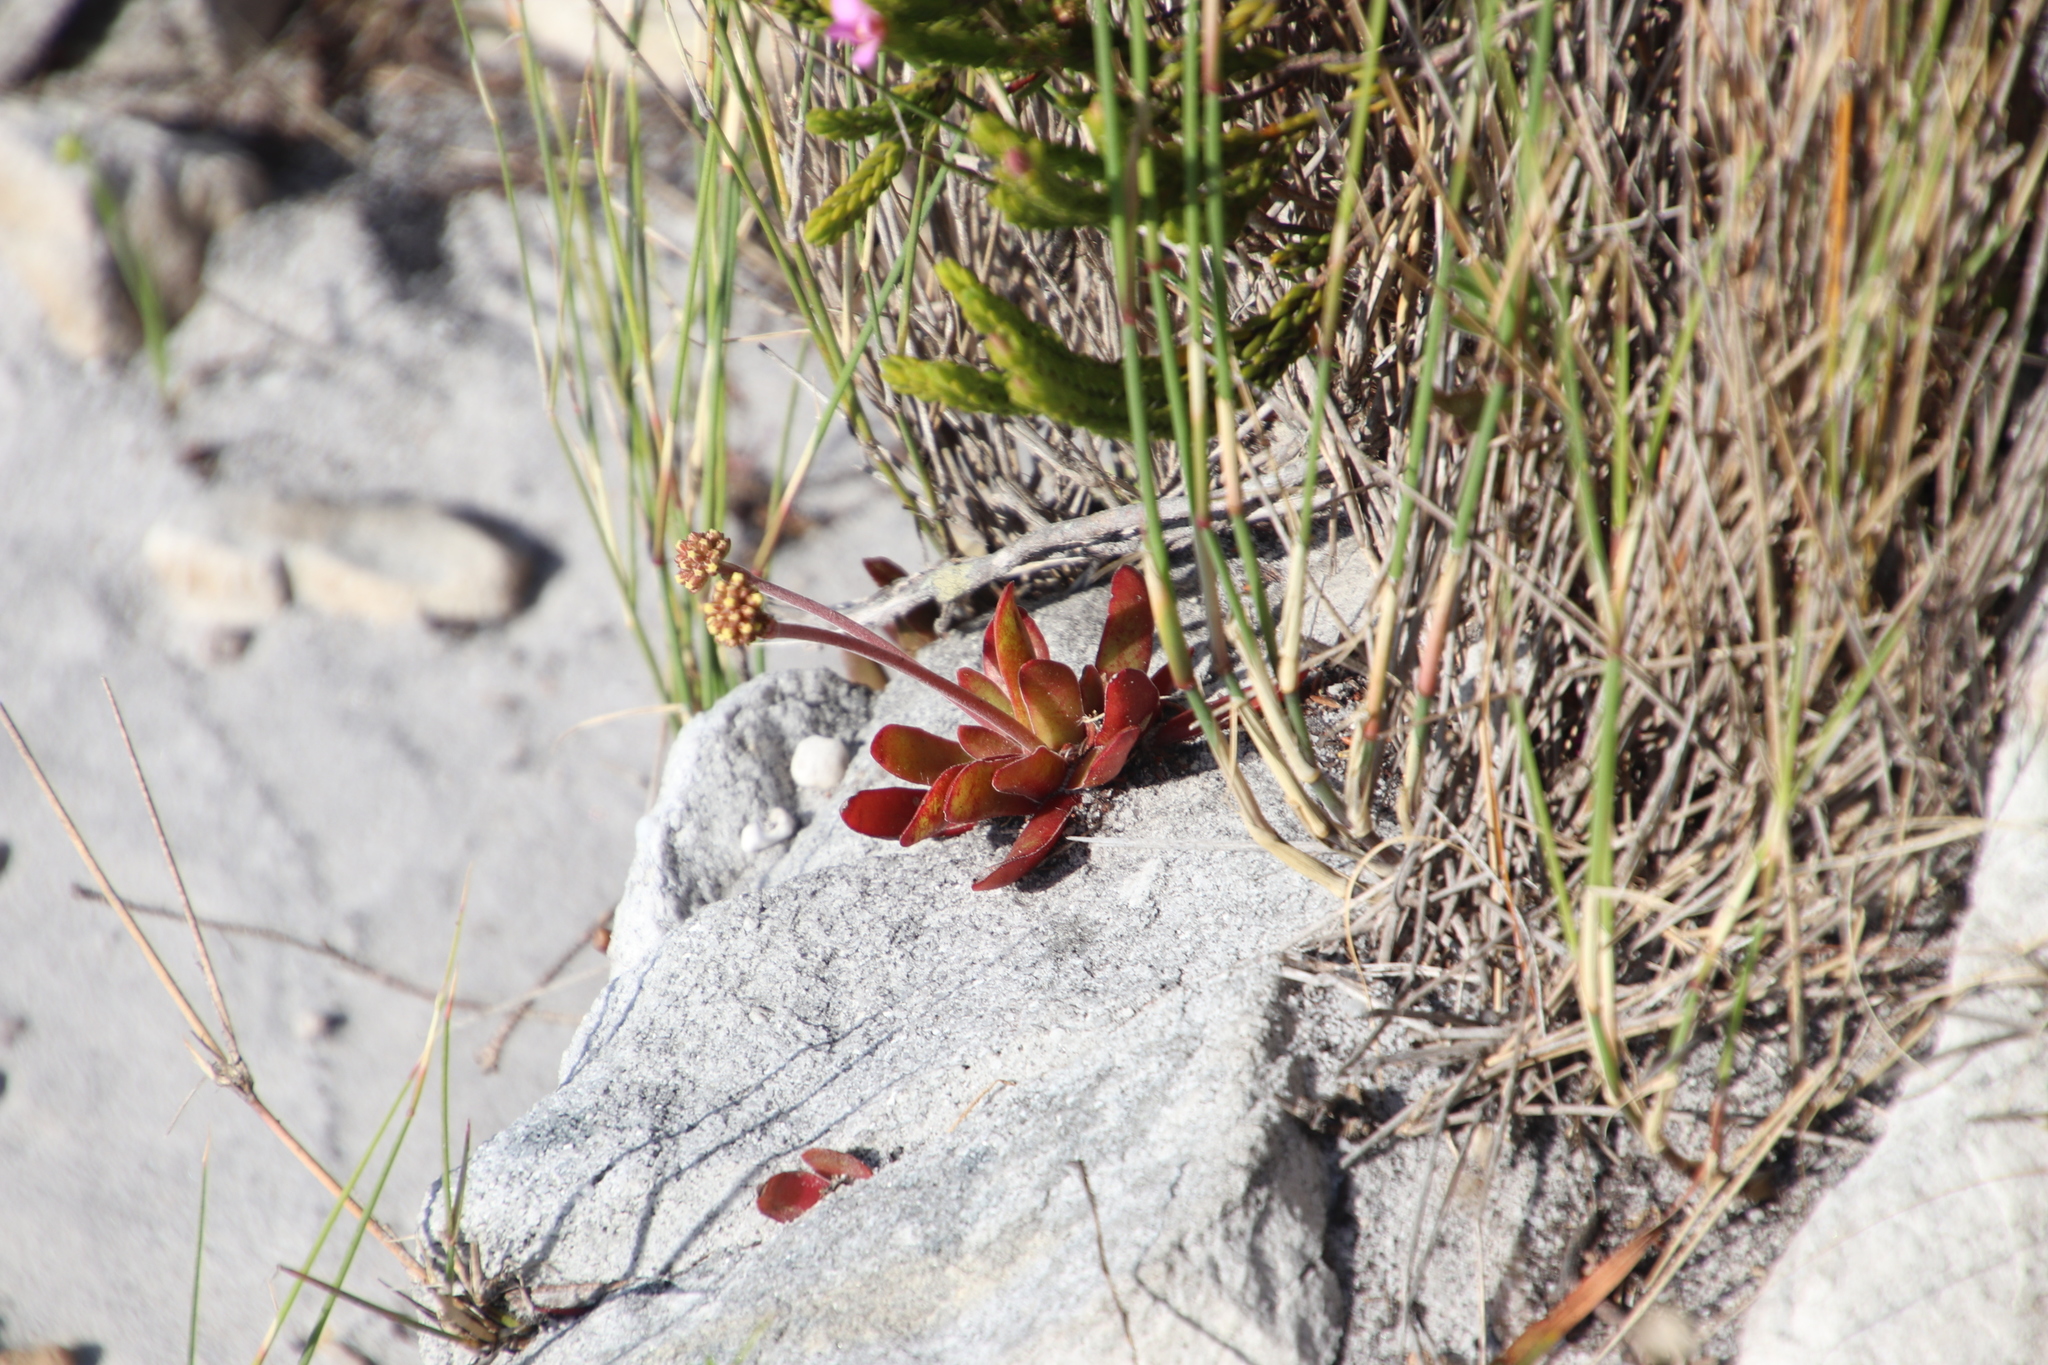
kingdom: Plantae
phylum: Tracheophyta
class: Magnoliopsida
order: Saxifragales
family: Crassulaceae
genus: Crassula
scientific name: Crassula nudicaulis
